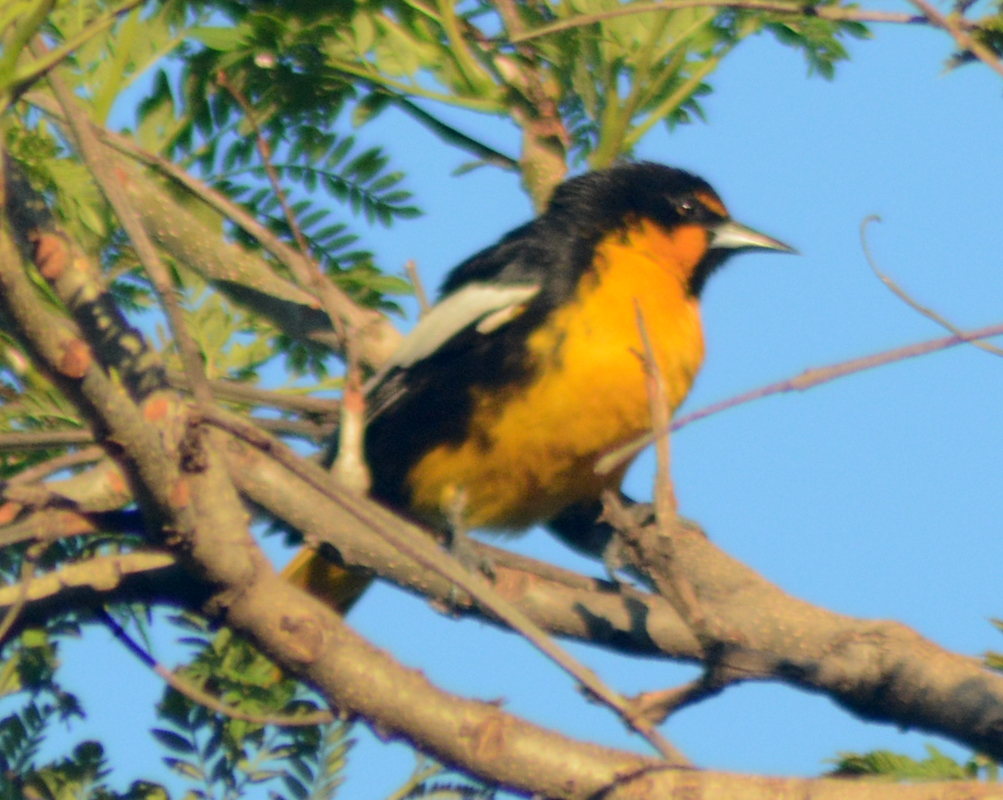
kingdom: Animalia
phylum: Chordata
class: Aves
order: Passeriformes
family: Icteridae
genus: Icterus
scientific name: Icterus abeillei
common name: Black-backed oriole
